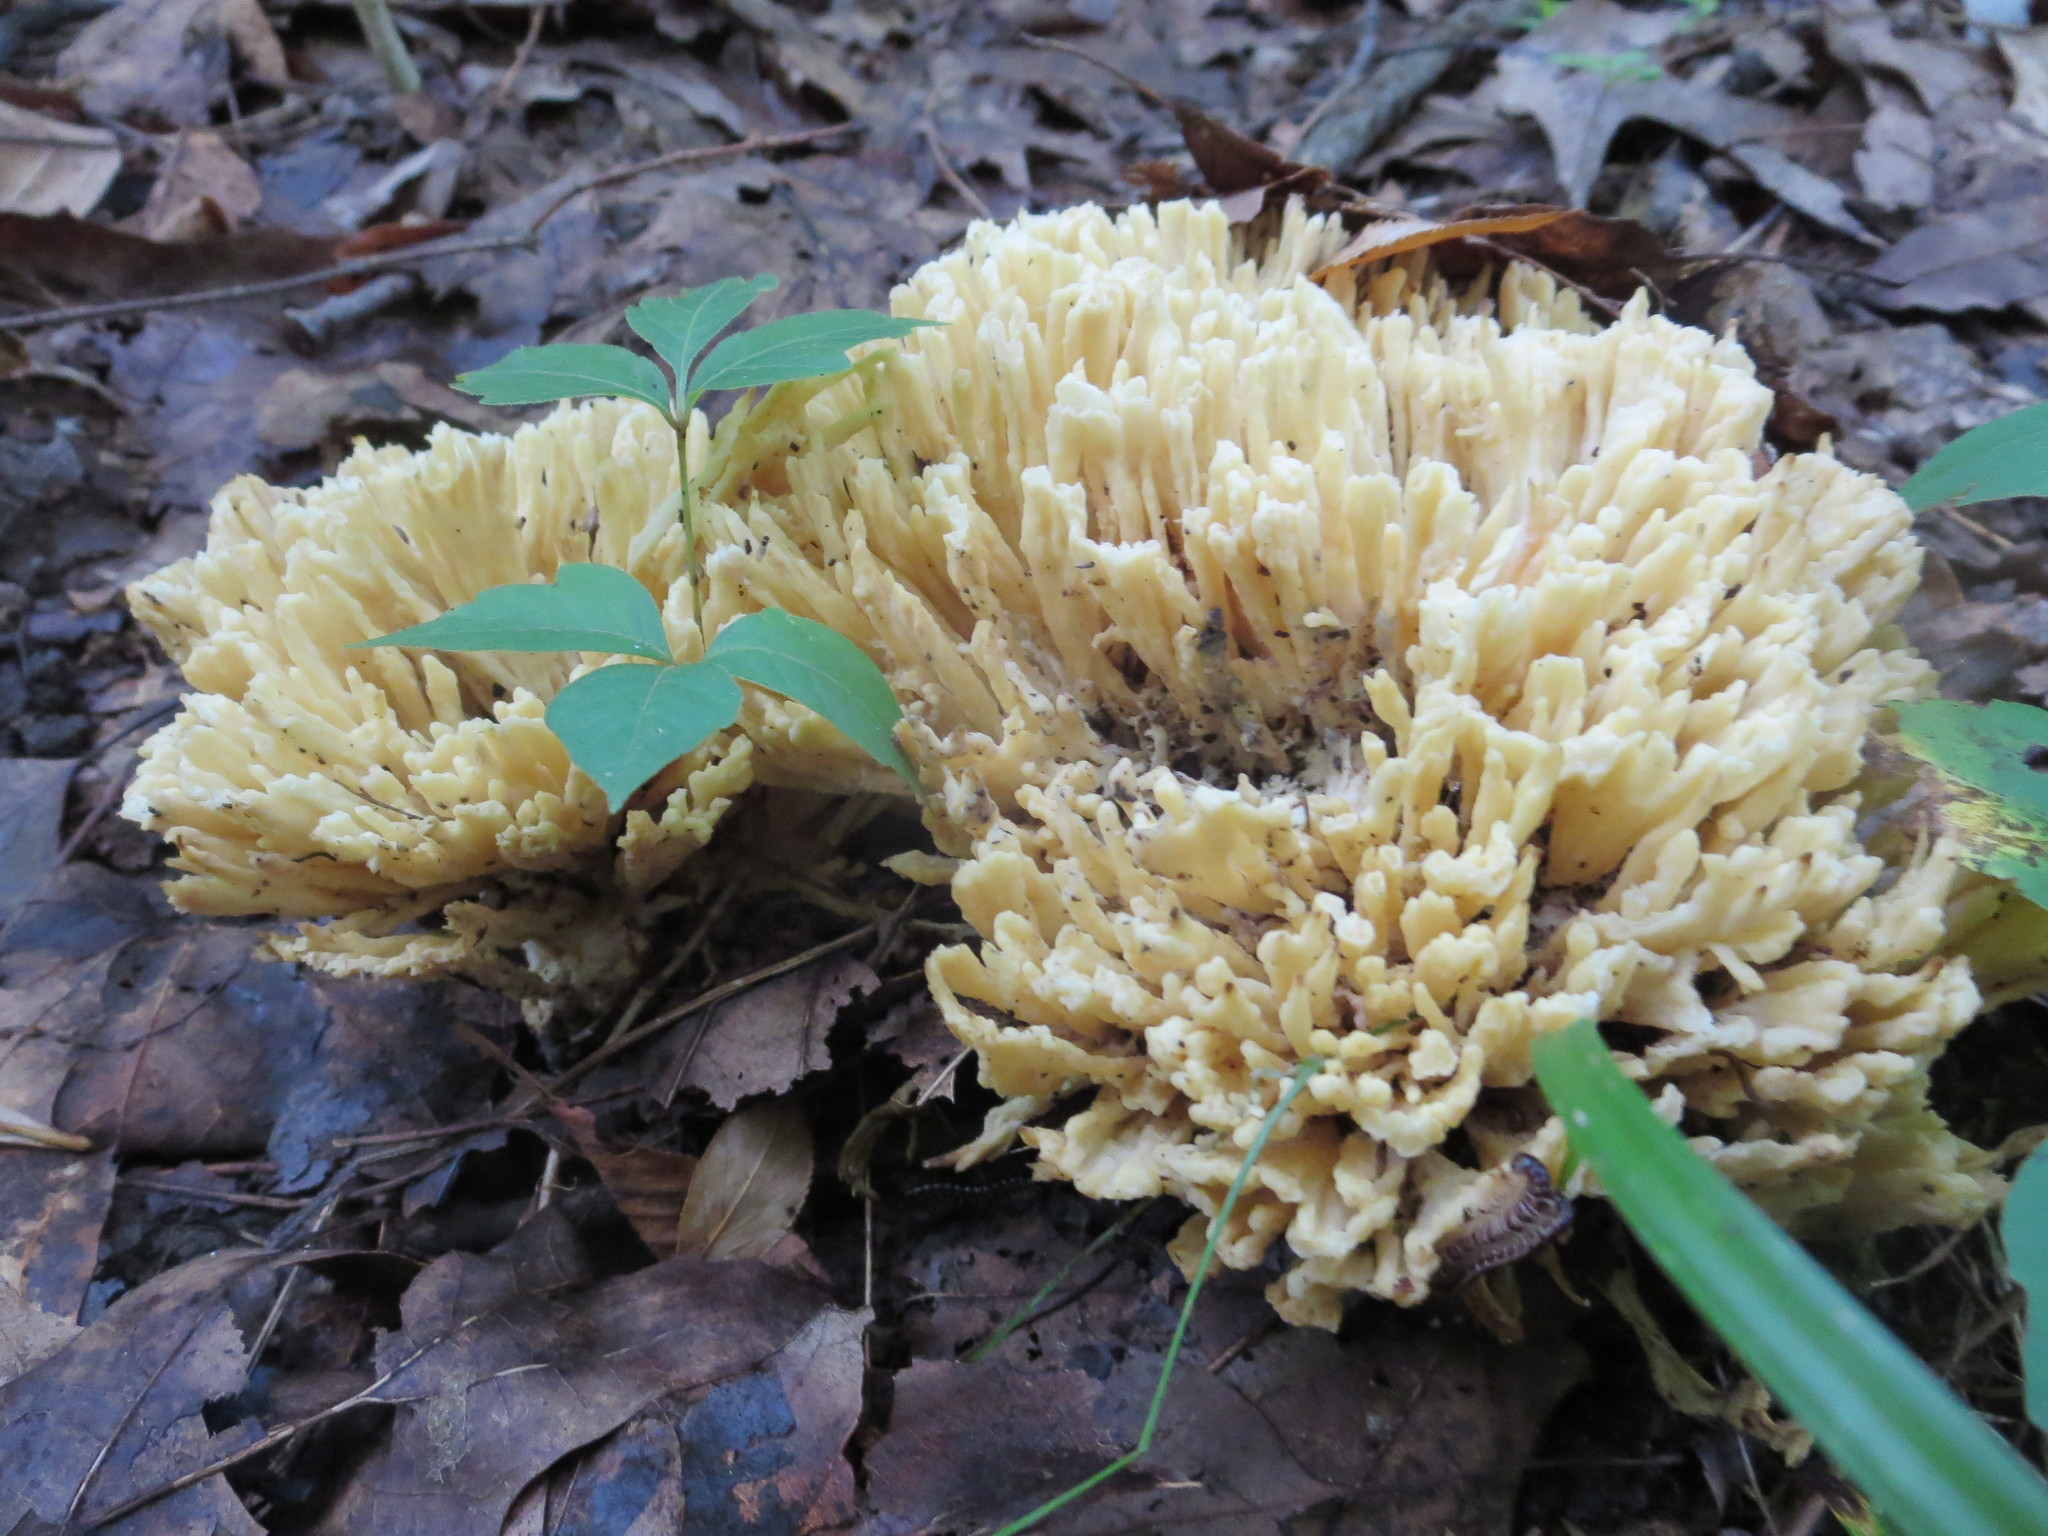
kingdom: Fungi
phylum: Basidiomycota
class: Agaricomycetes
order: Sebacinales
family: Sebacinaceae
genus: Sebacina
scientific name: Sebacina schweinitzii
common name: Jellied false coral fungus
